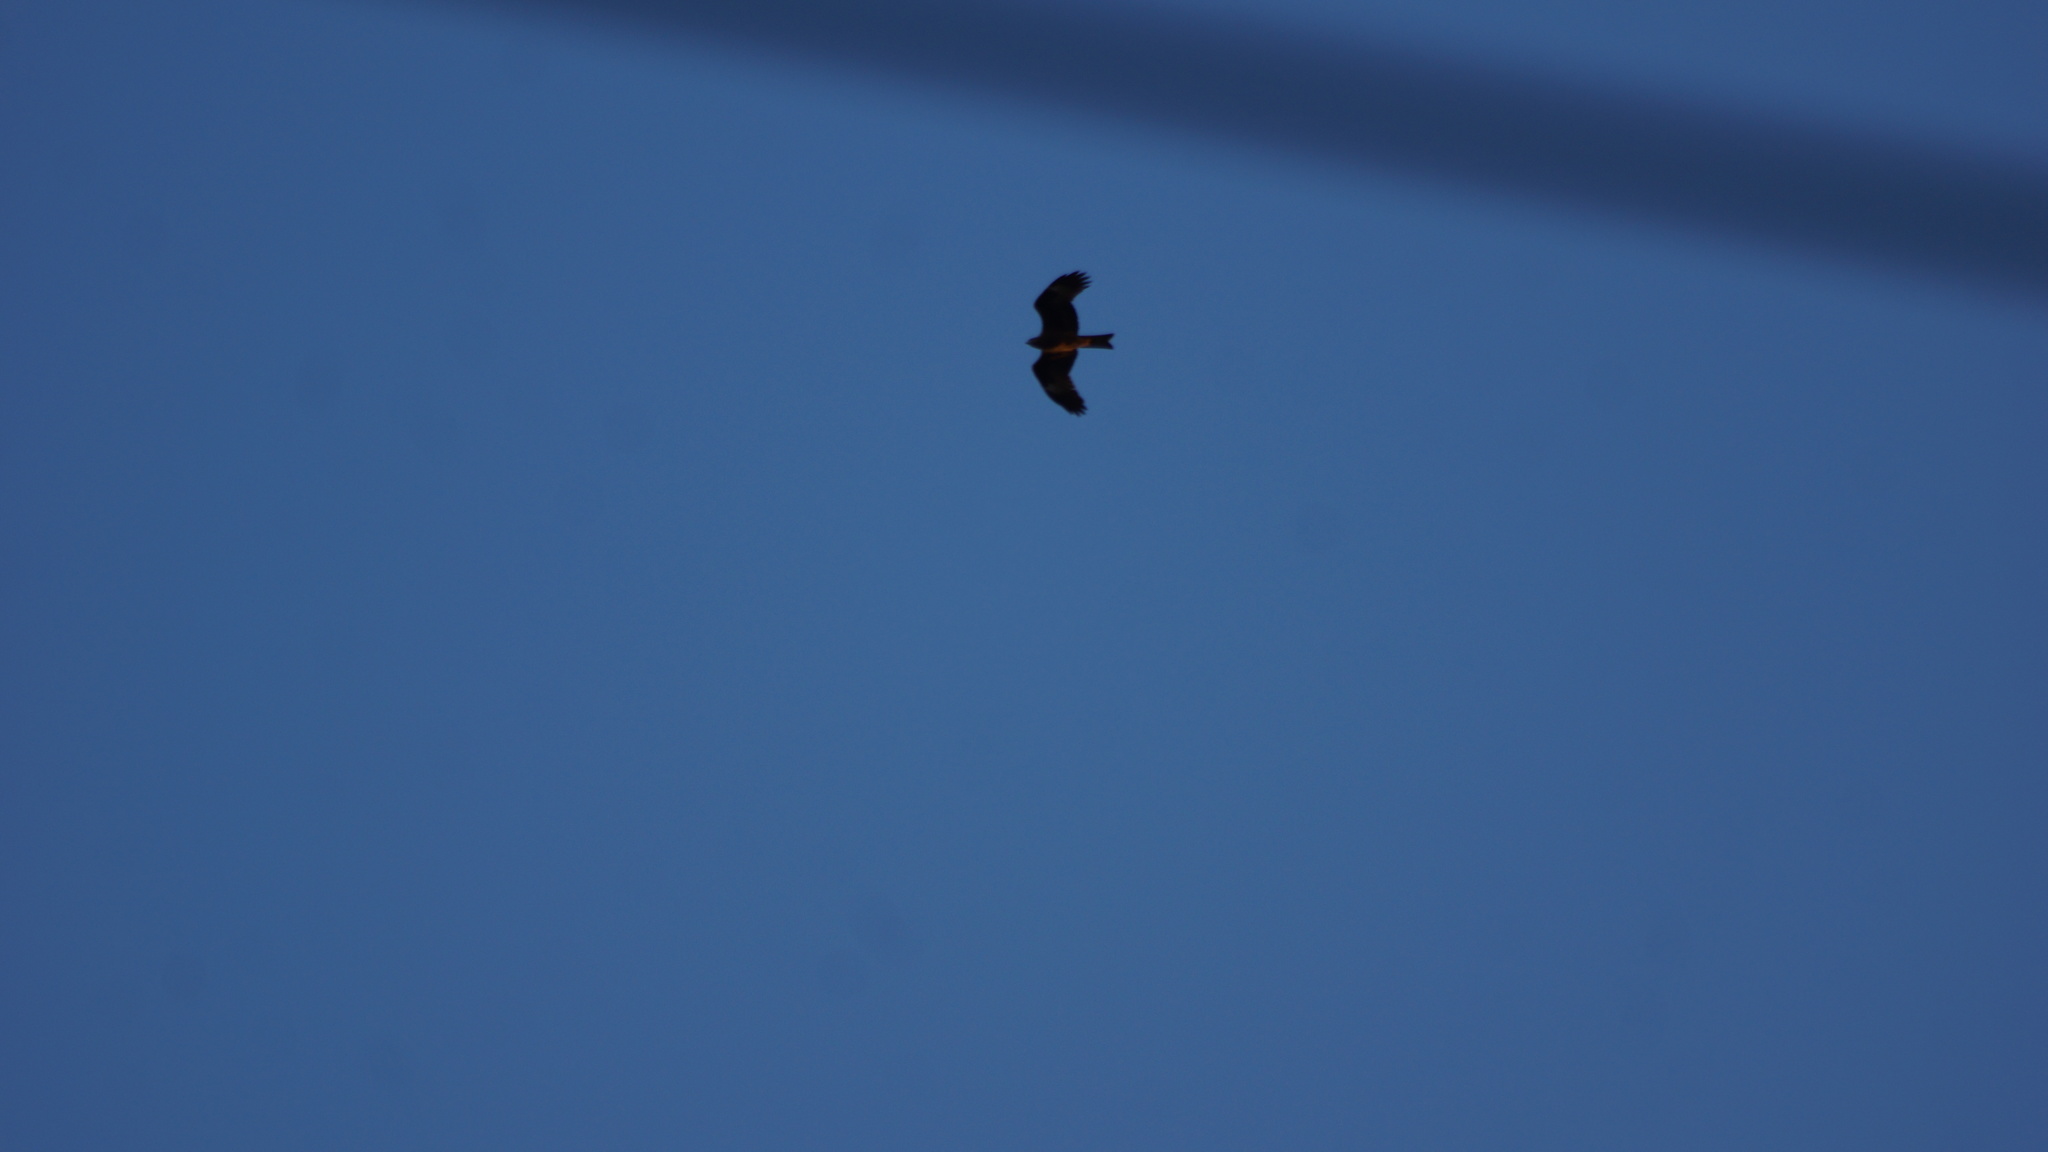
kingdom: Animalia
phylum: Chordata
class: Aves
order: Accipitriformes
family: Accipitridae
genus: Milvus
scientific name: Milvus migrans
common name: Black kite
